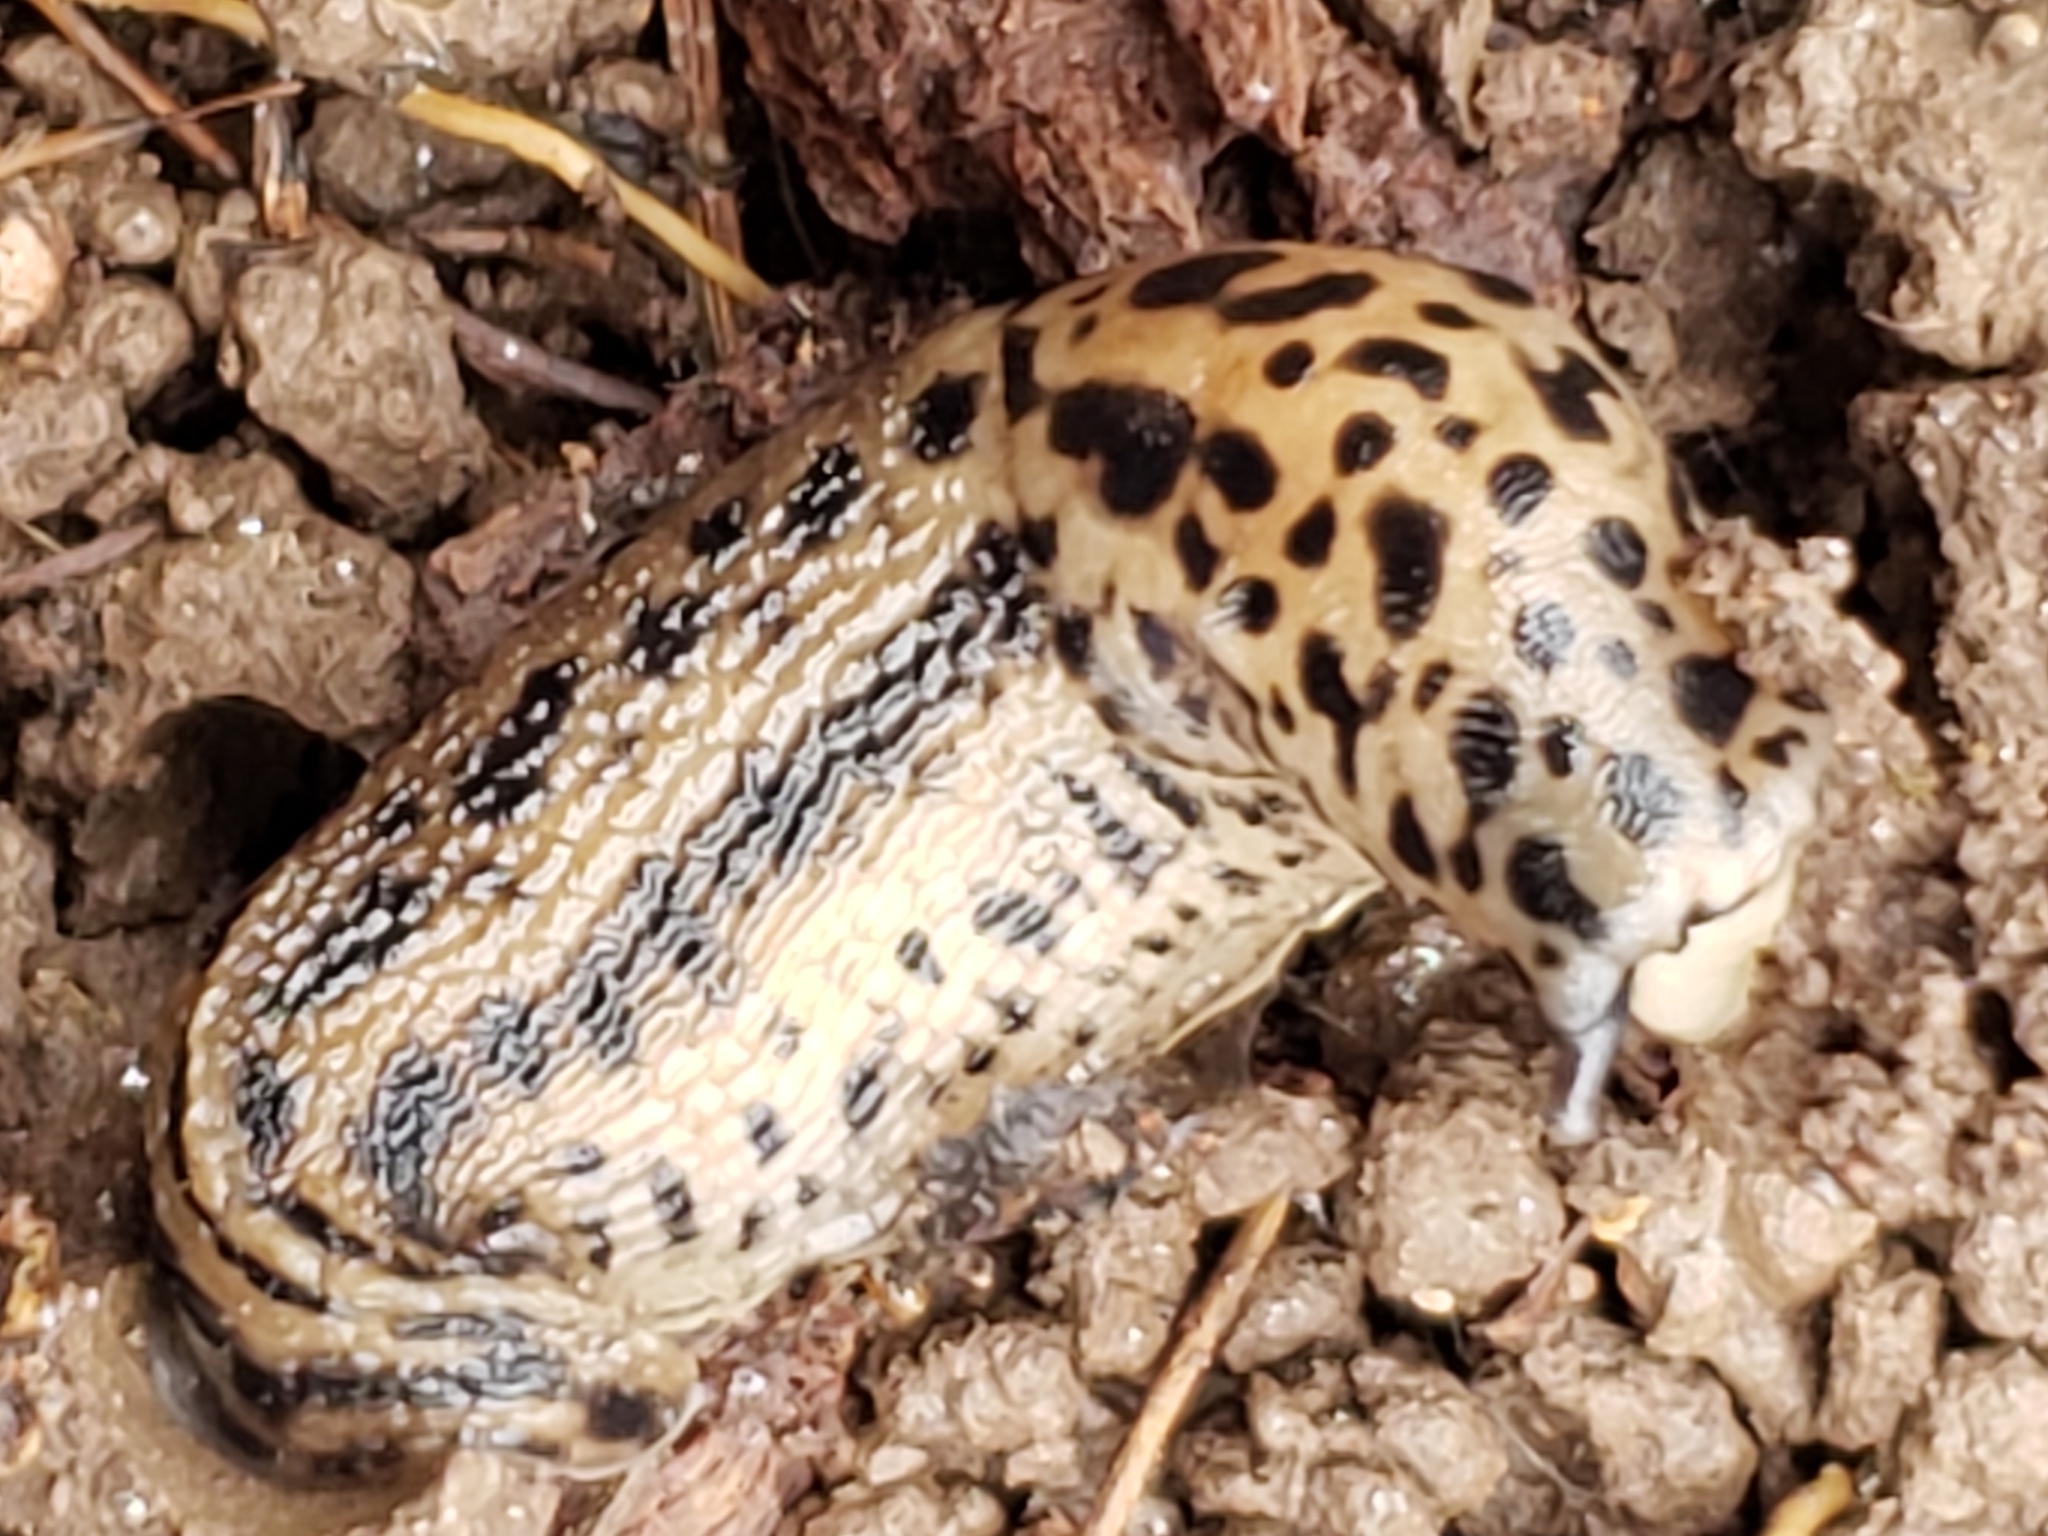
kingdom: Animalia
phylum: Mollusca
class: Gastropoda
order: Stylommatophora
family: Limacidae
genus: Limax
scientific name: Limax maximus
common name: Great grey slug
